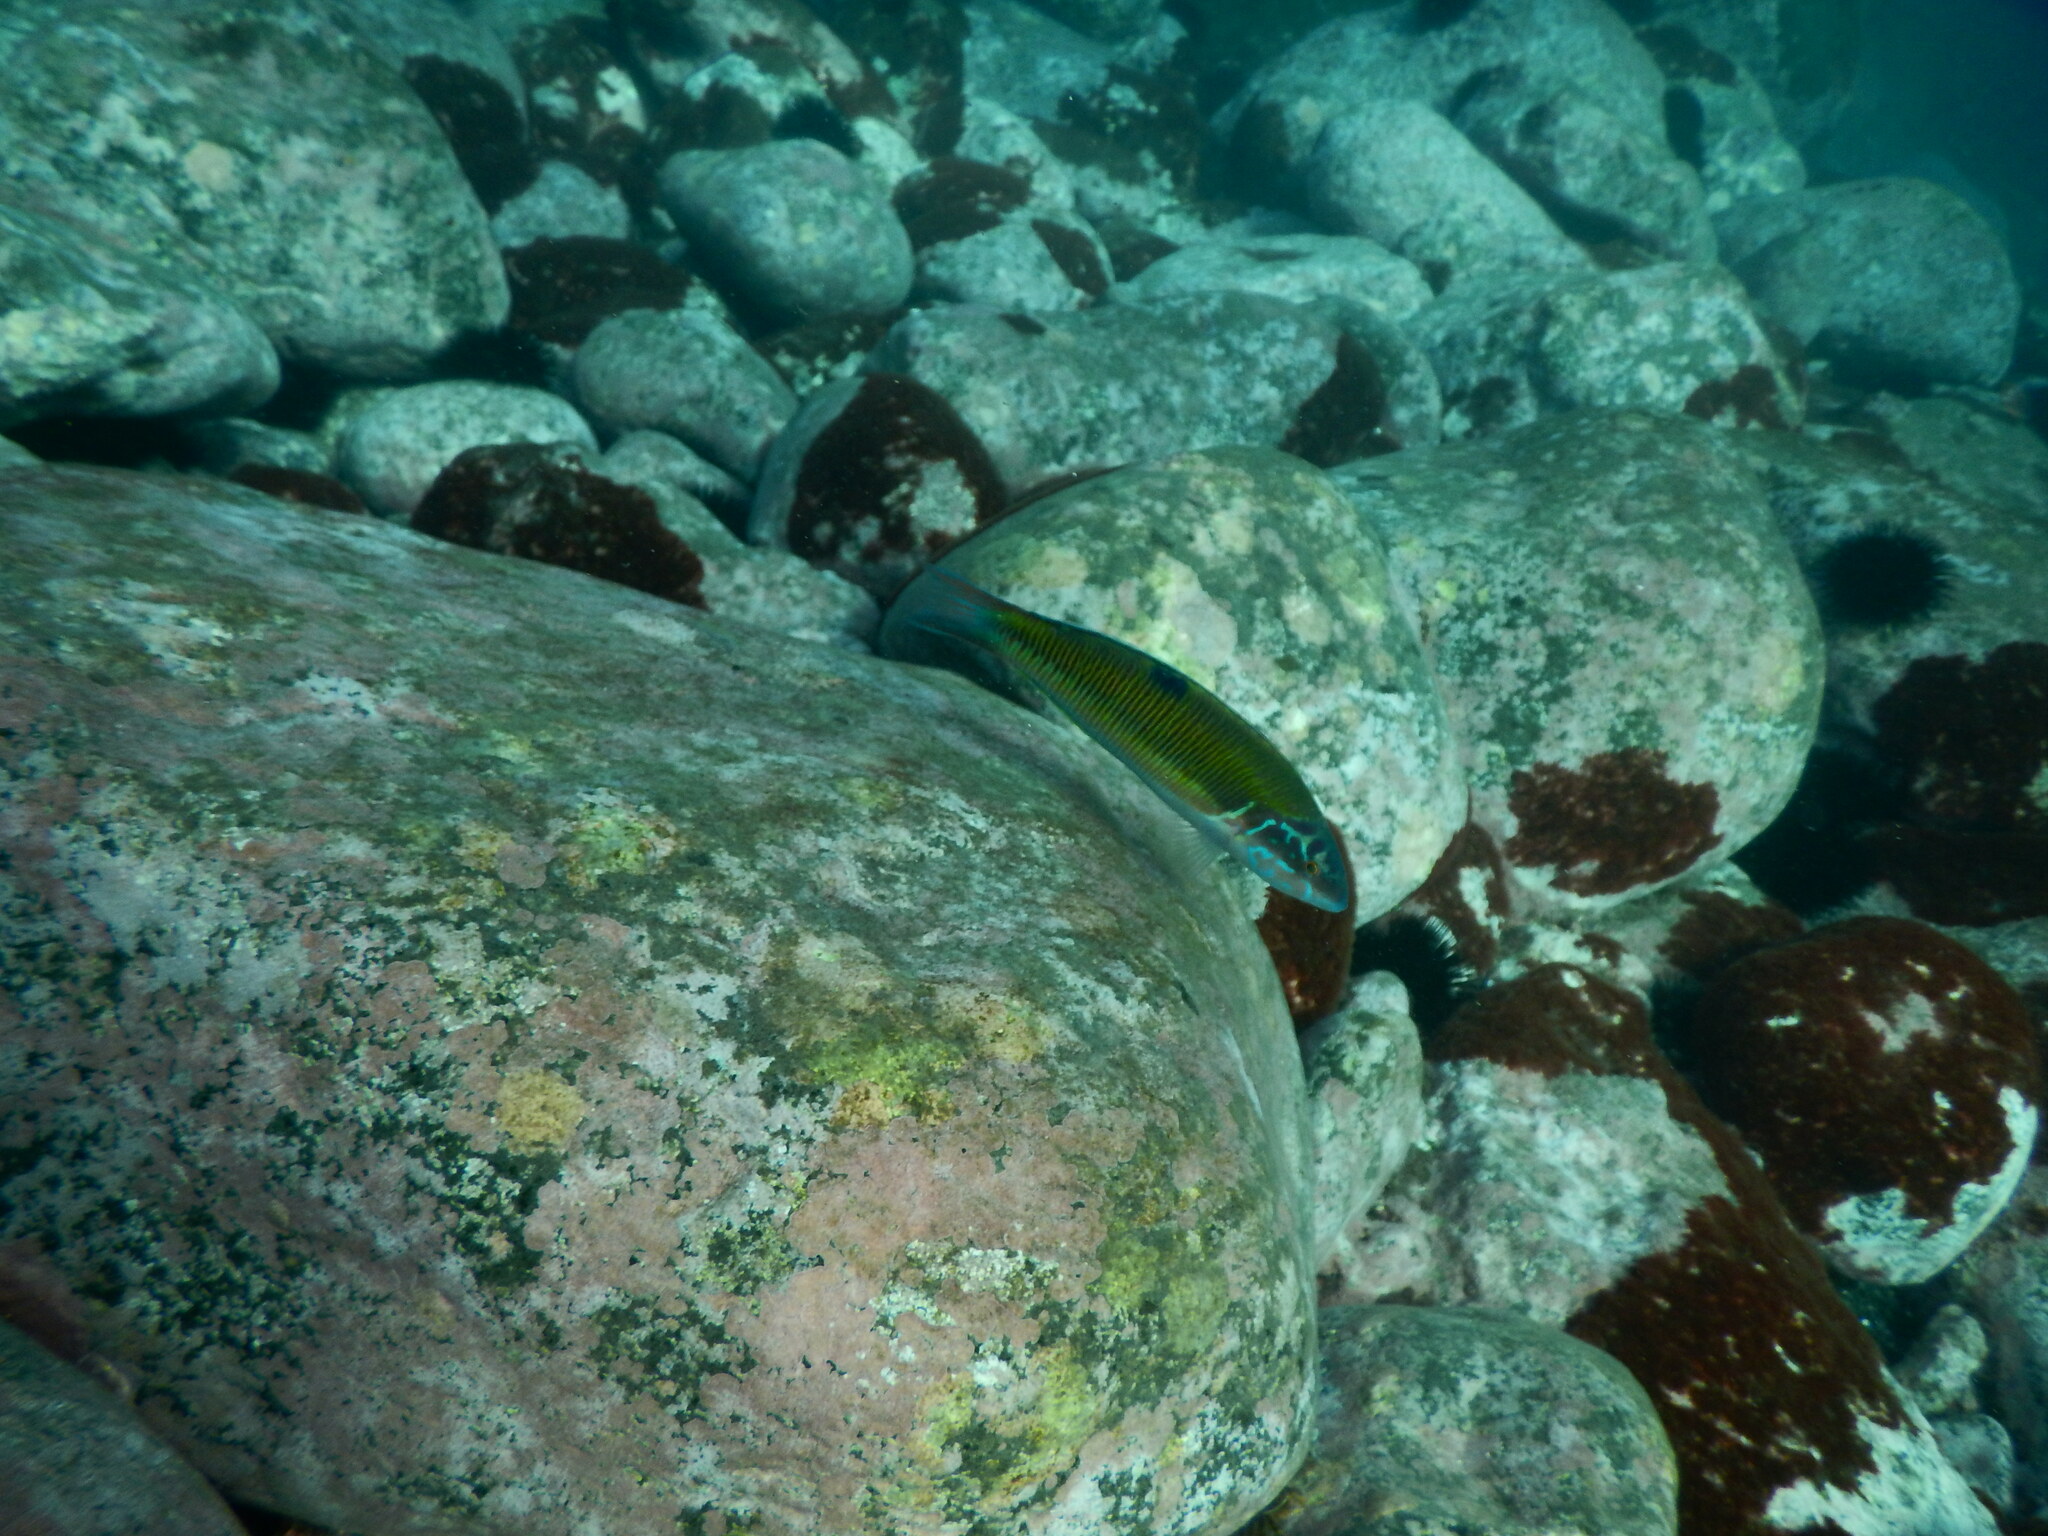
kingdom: Animalia
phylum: Chordata
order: Perciformes
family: Labridae
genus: Thalassoma
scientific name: Thalassoma pavo
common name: Ornate wrasse
